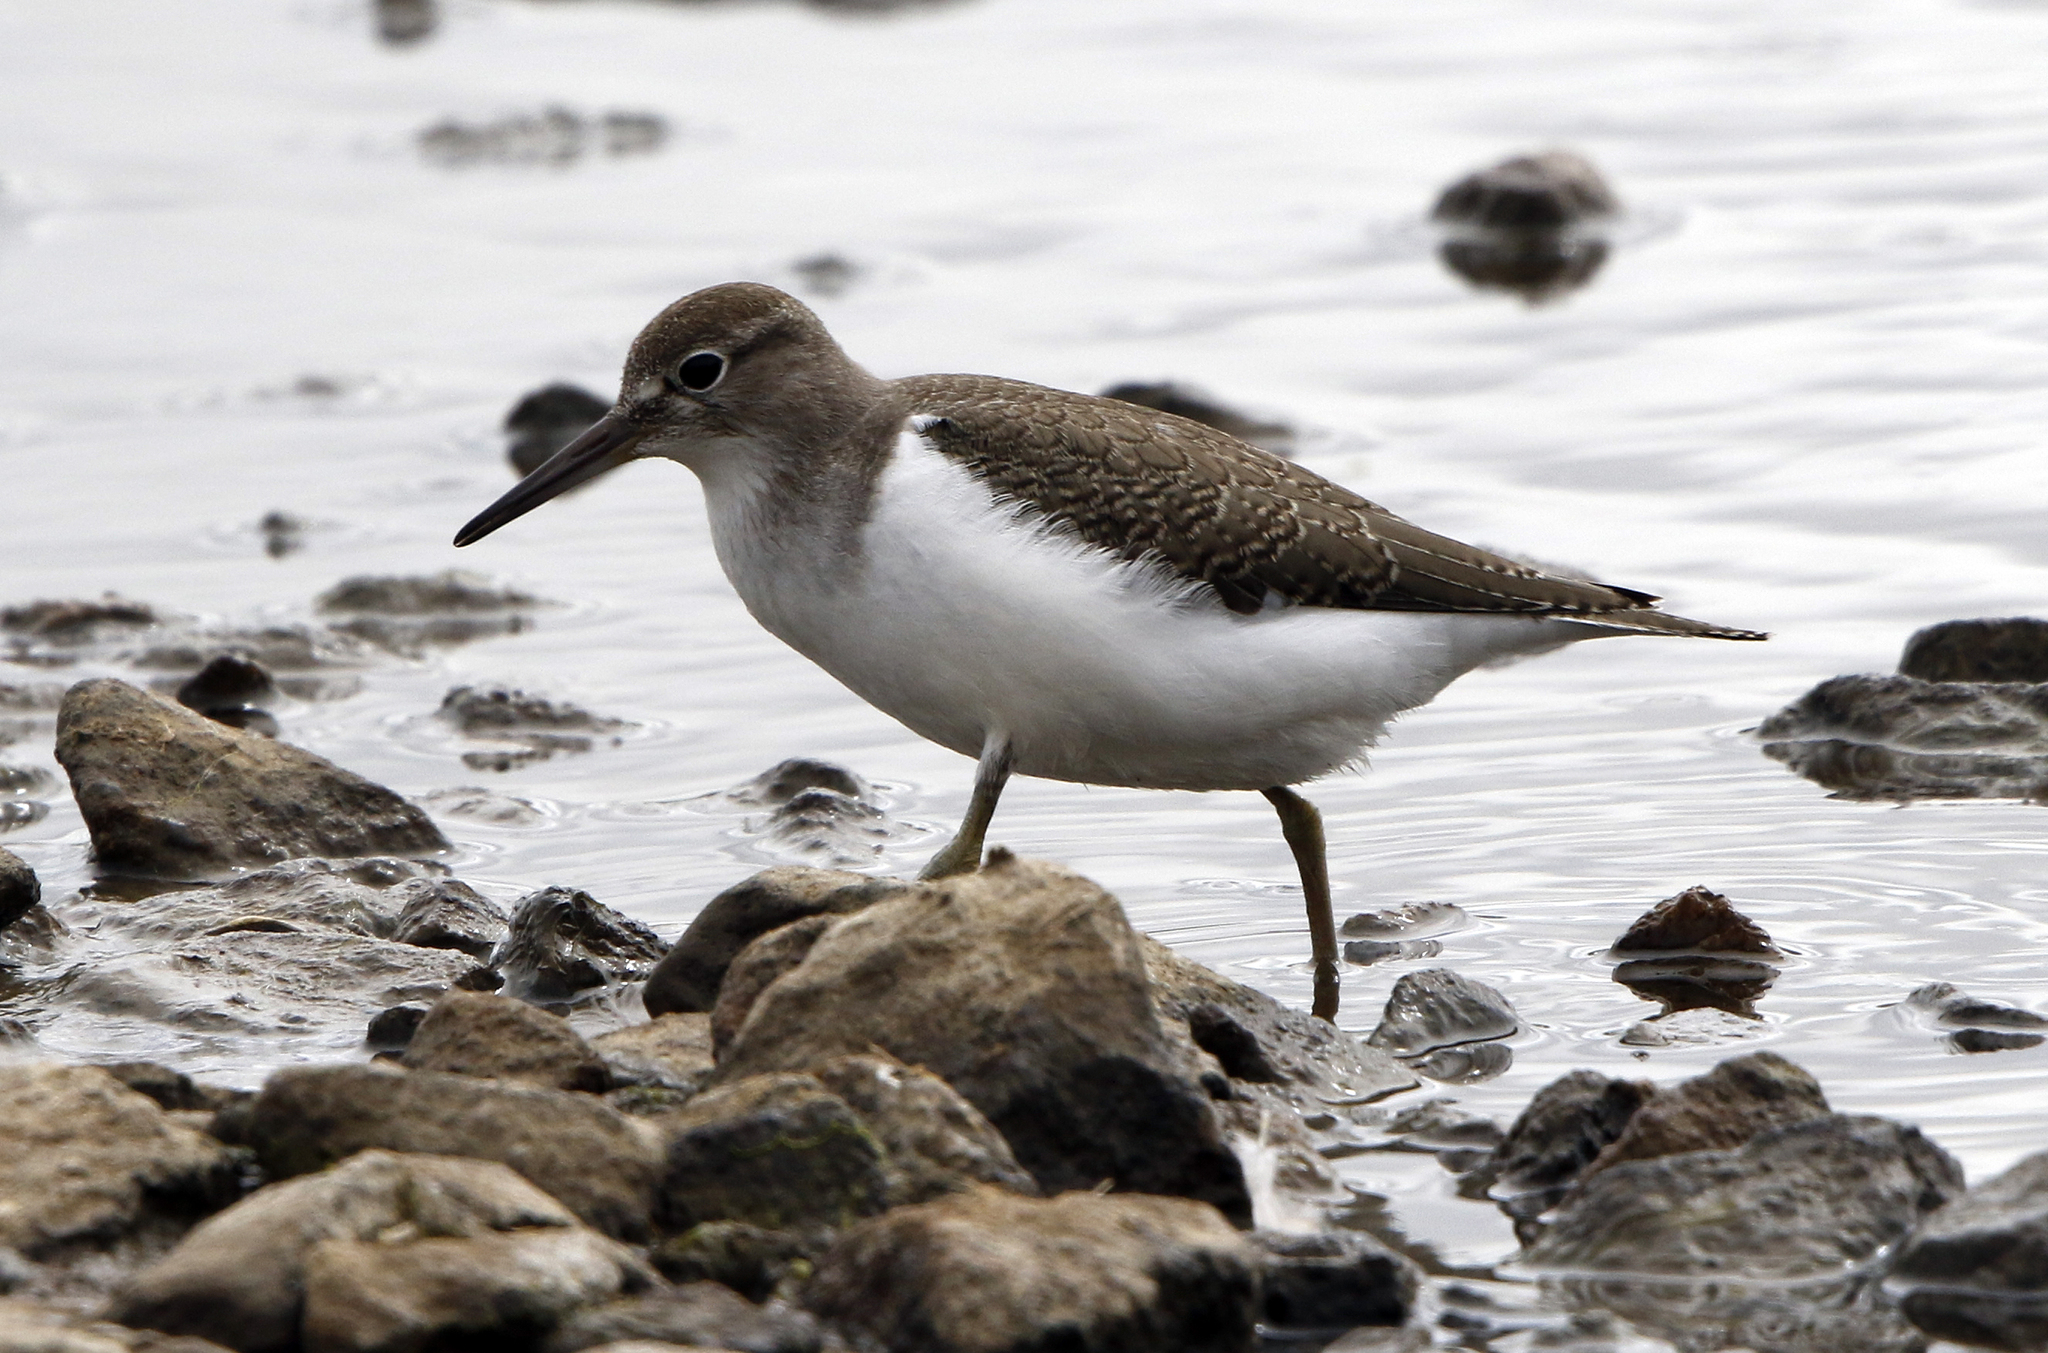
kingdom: Animalia
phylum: Chordata
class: Aves
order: Charadriiformes
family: Scolopacidae
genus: Actitis
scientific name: Actitis hypoleucos
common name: Common sandpiper
